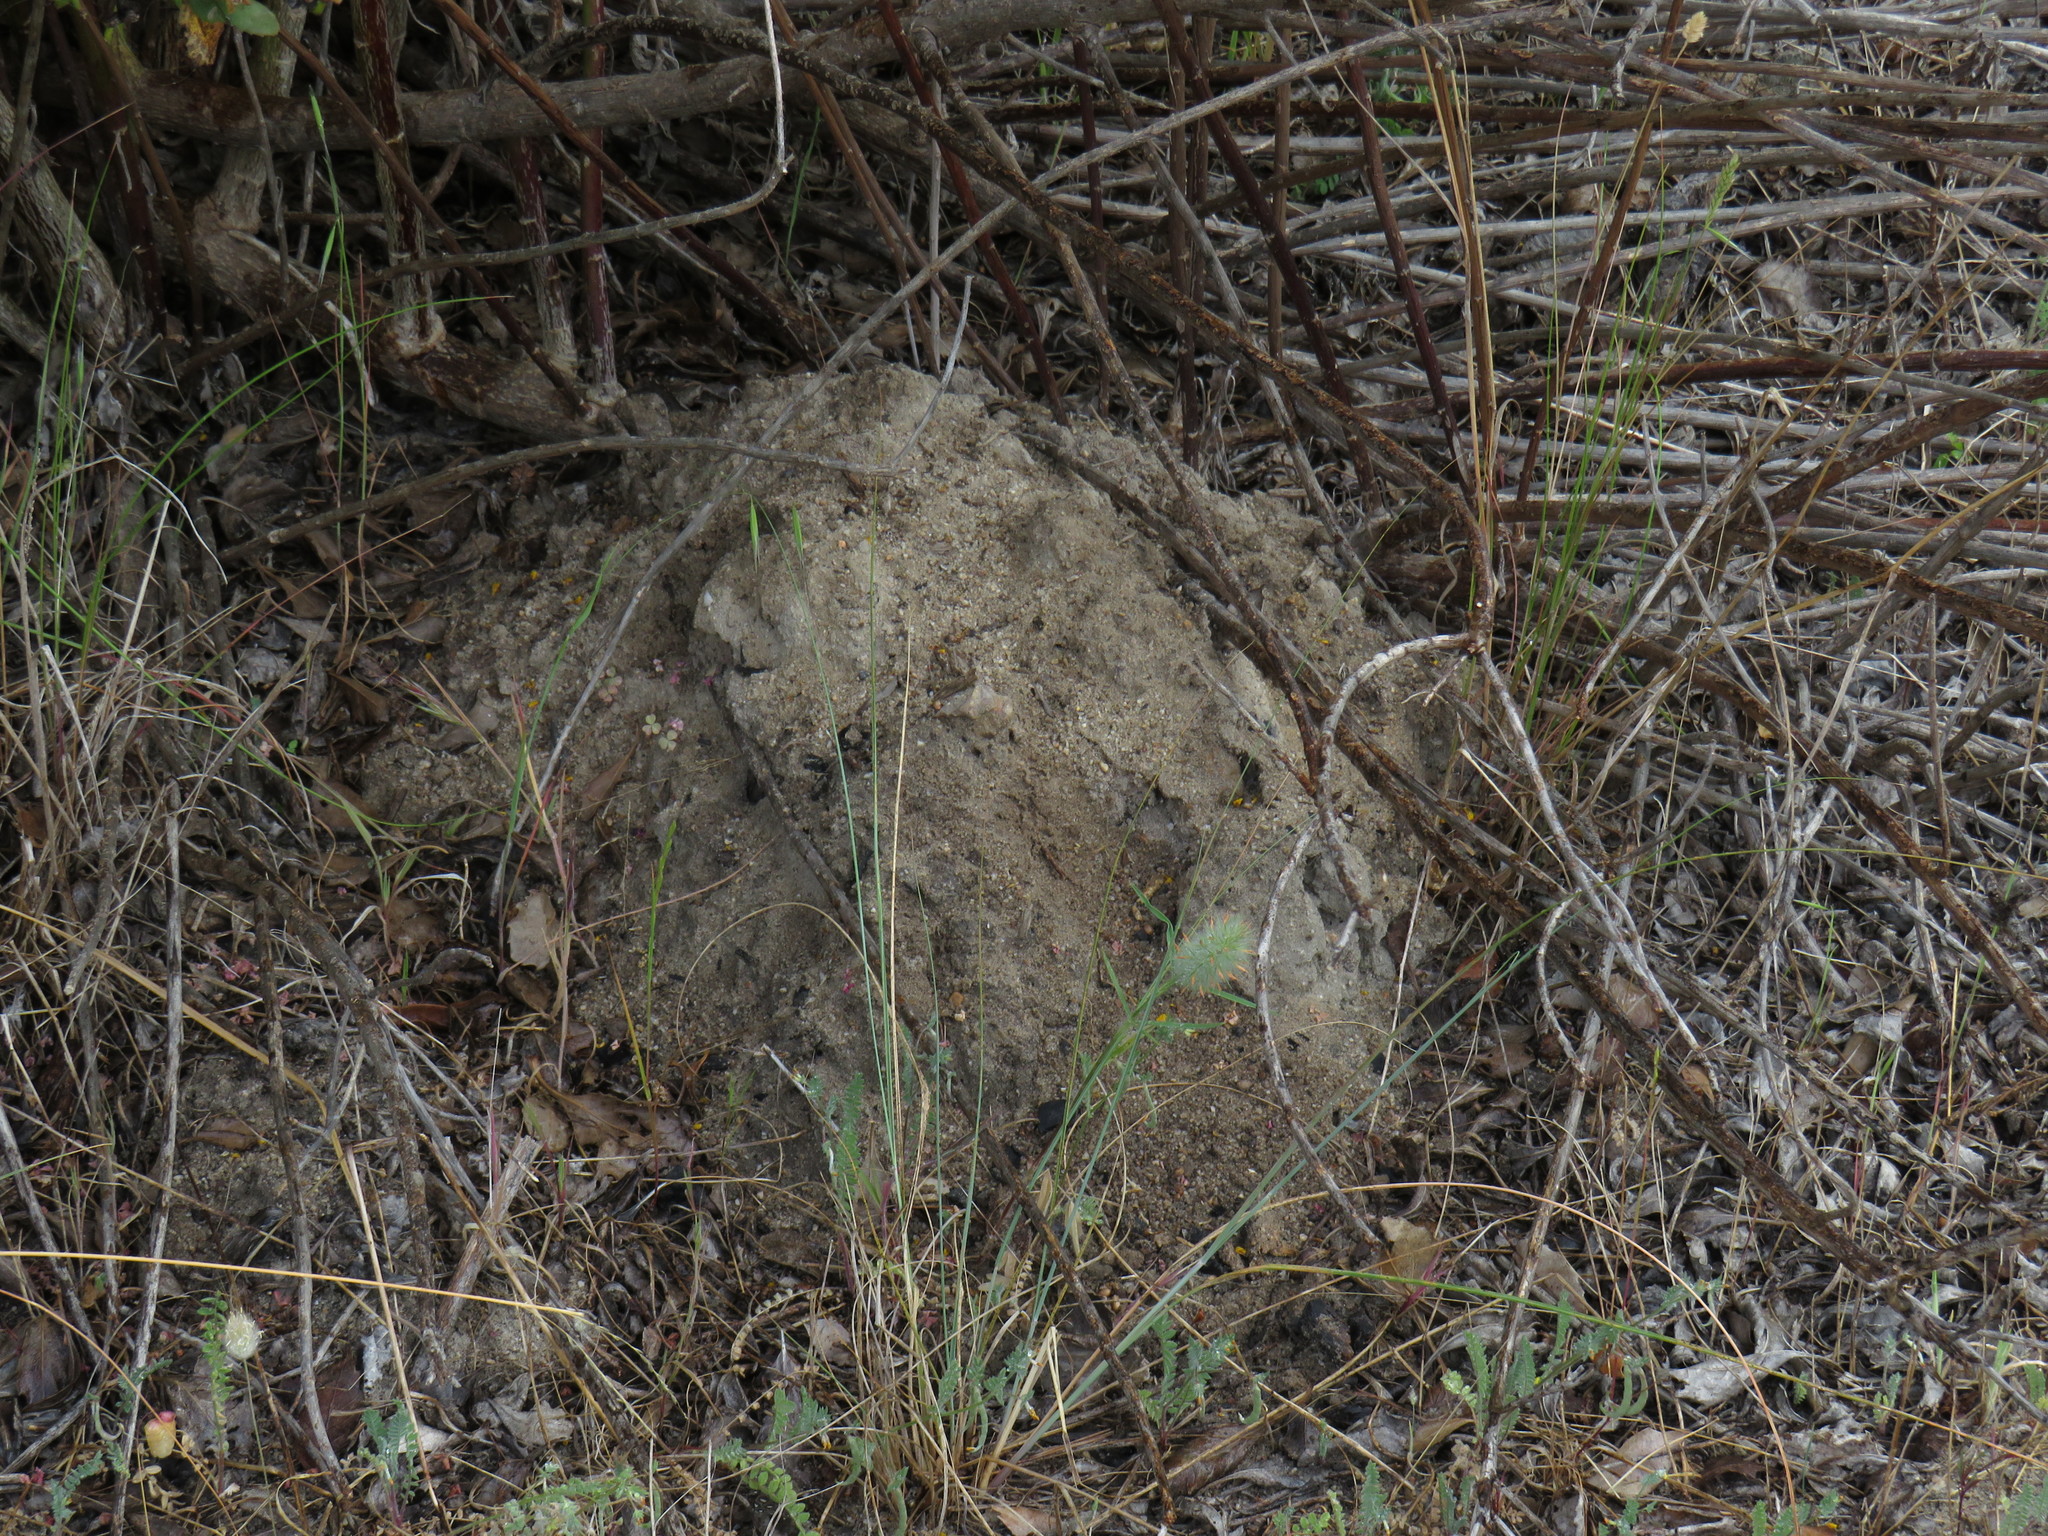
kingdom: Animalia
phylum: Chordata
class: Mammalia
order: Rodentia
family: Bathyergidae
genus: Bathyergus
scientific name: Bathyergus suillus
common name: Cape dune mole rat
